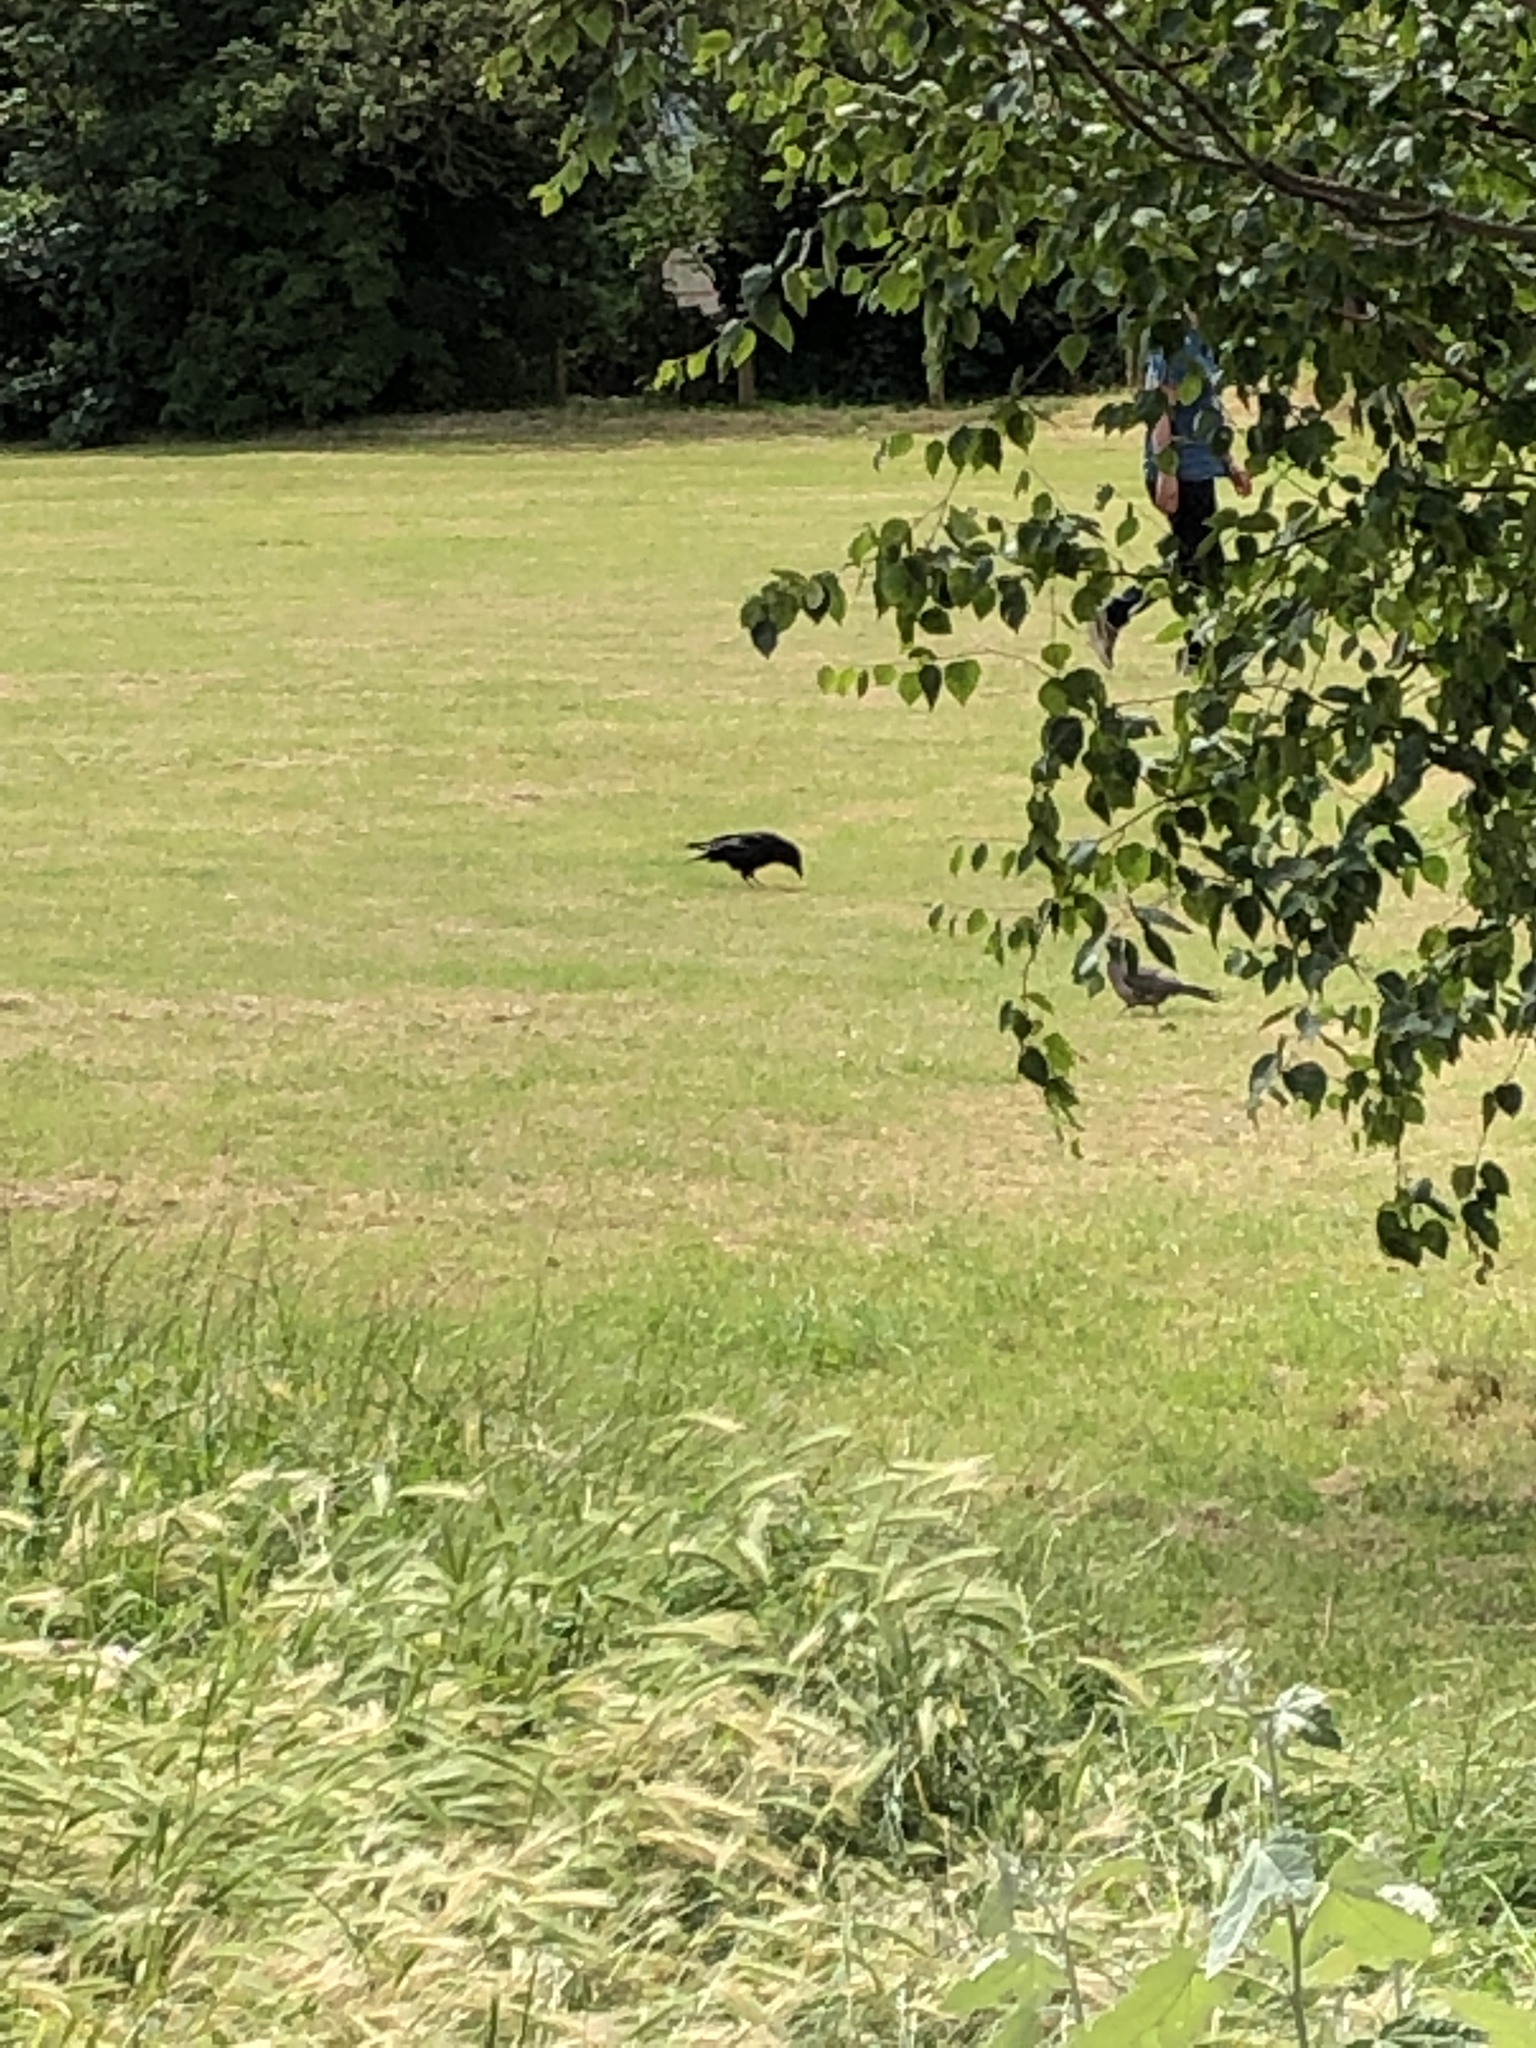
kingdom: Animalia
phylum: Chordata
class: Aves
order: Passeriformes
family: Corvidae
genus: Corvus
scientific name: Corvus corone
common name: Carrion crow
